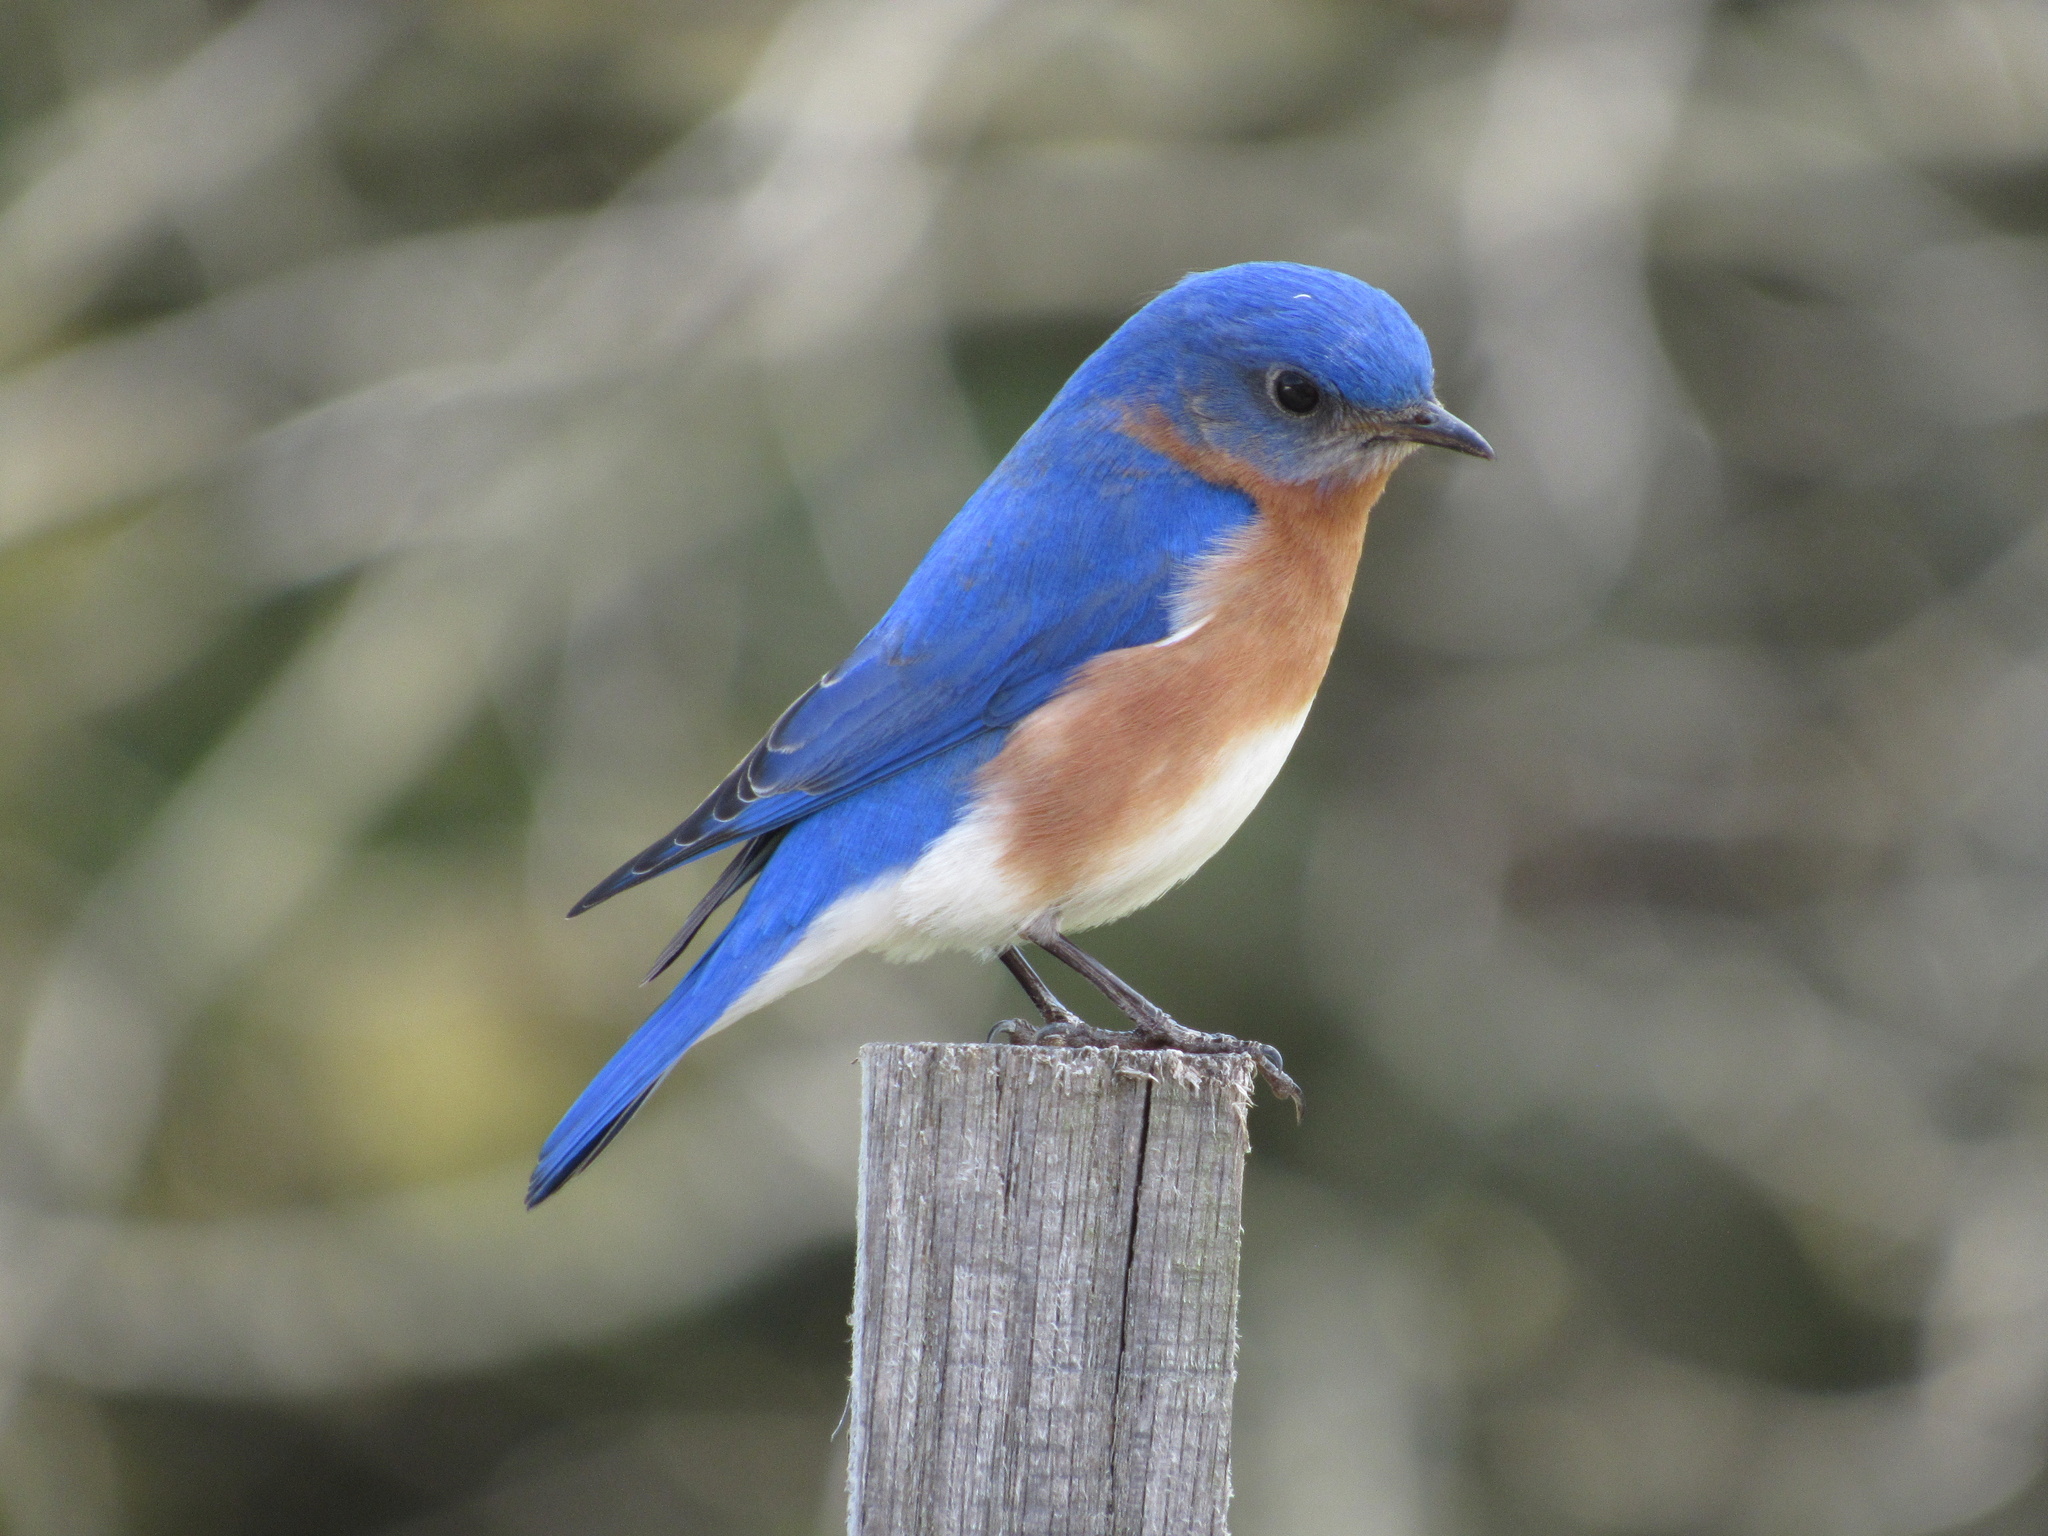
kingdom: Animalia
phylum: Chordata
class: Aves
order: Passeriformes
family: Turdidae
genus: Sialia
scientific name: Sialia sialis
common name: Eastern bluebird
